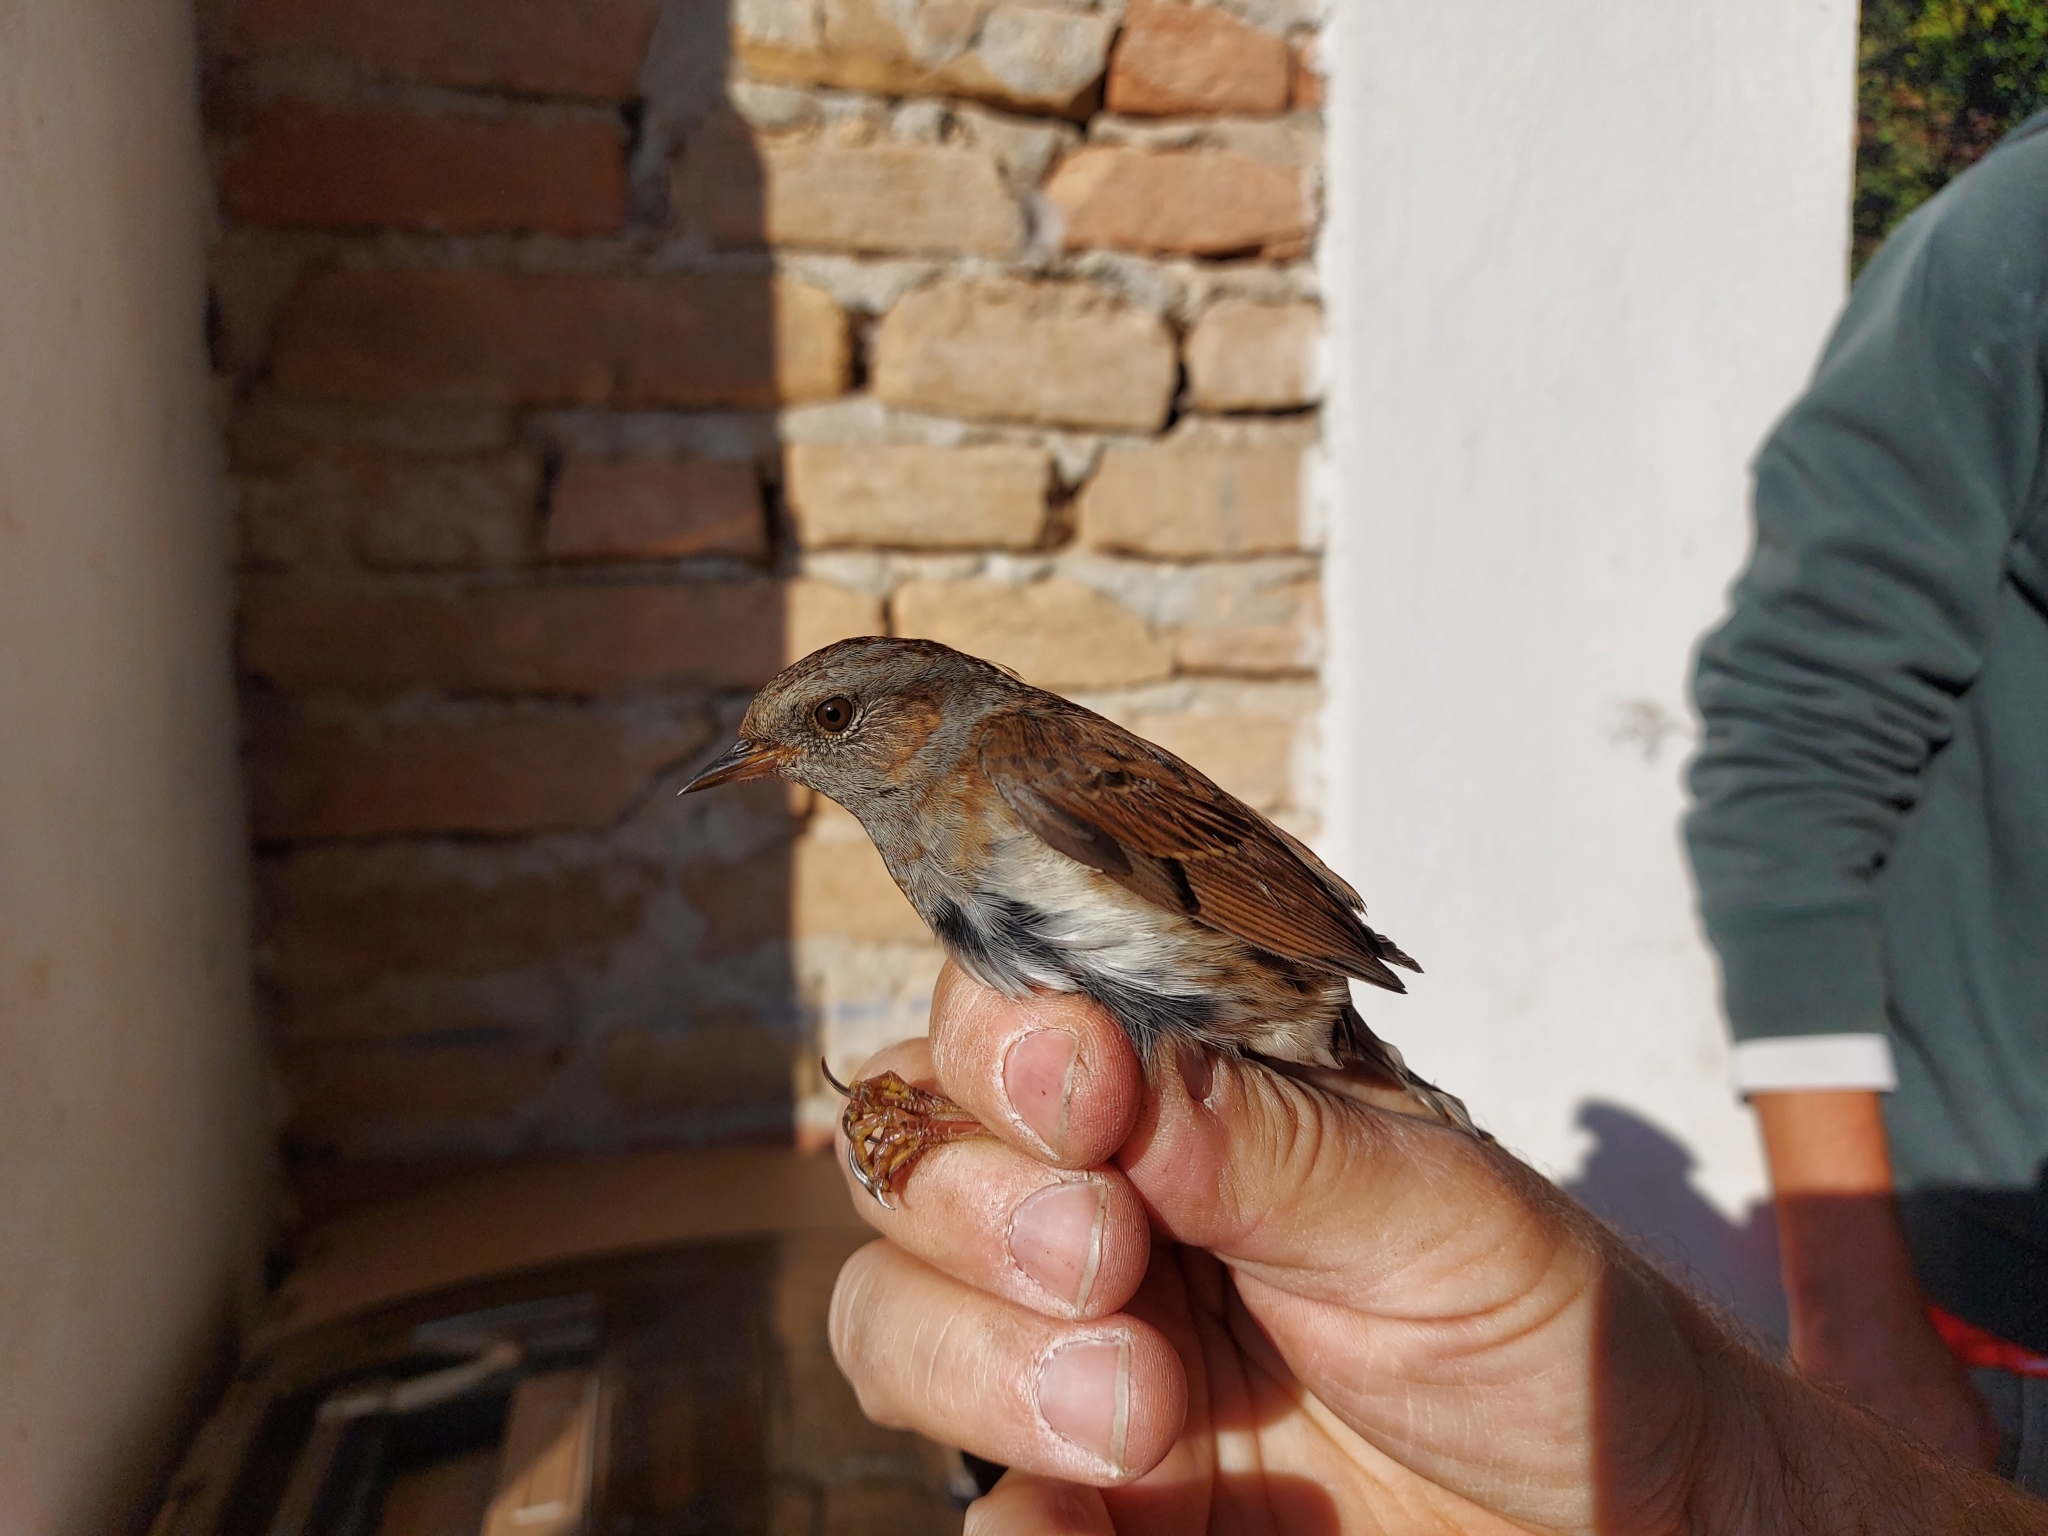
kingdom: Animalia
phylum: Chordata
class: Aves
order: Passeriformes
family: Prunellidae
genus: Prunella
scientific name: Prunella modularis
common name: Dunnock
